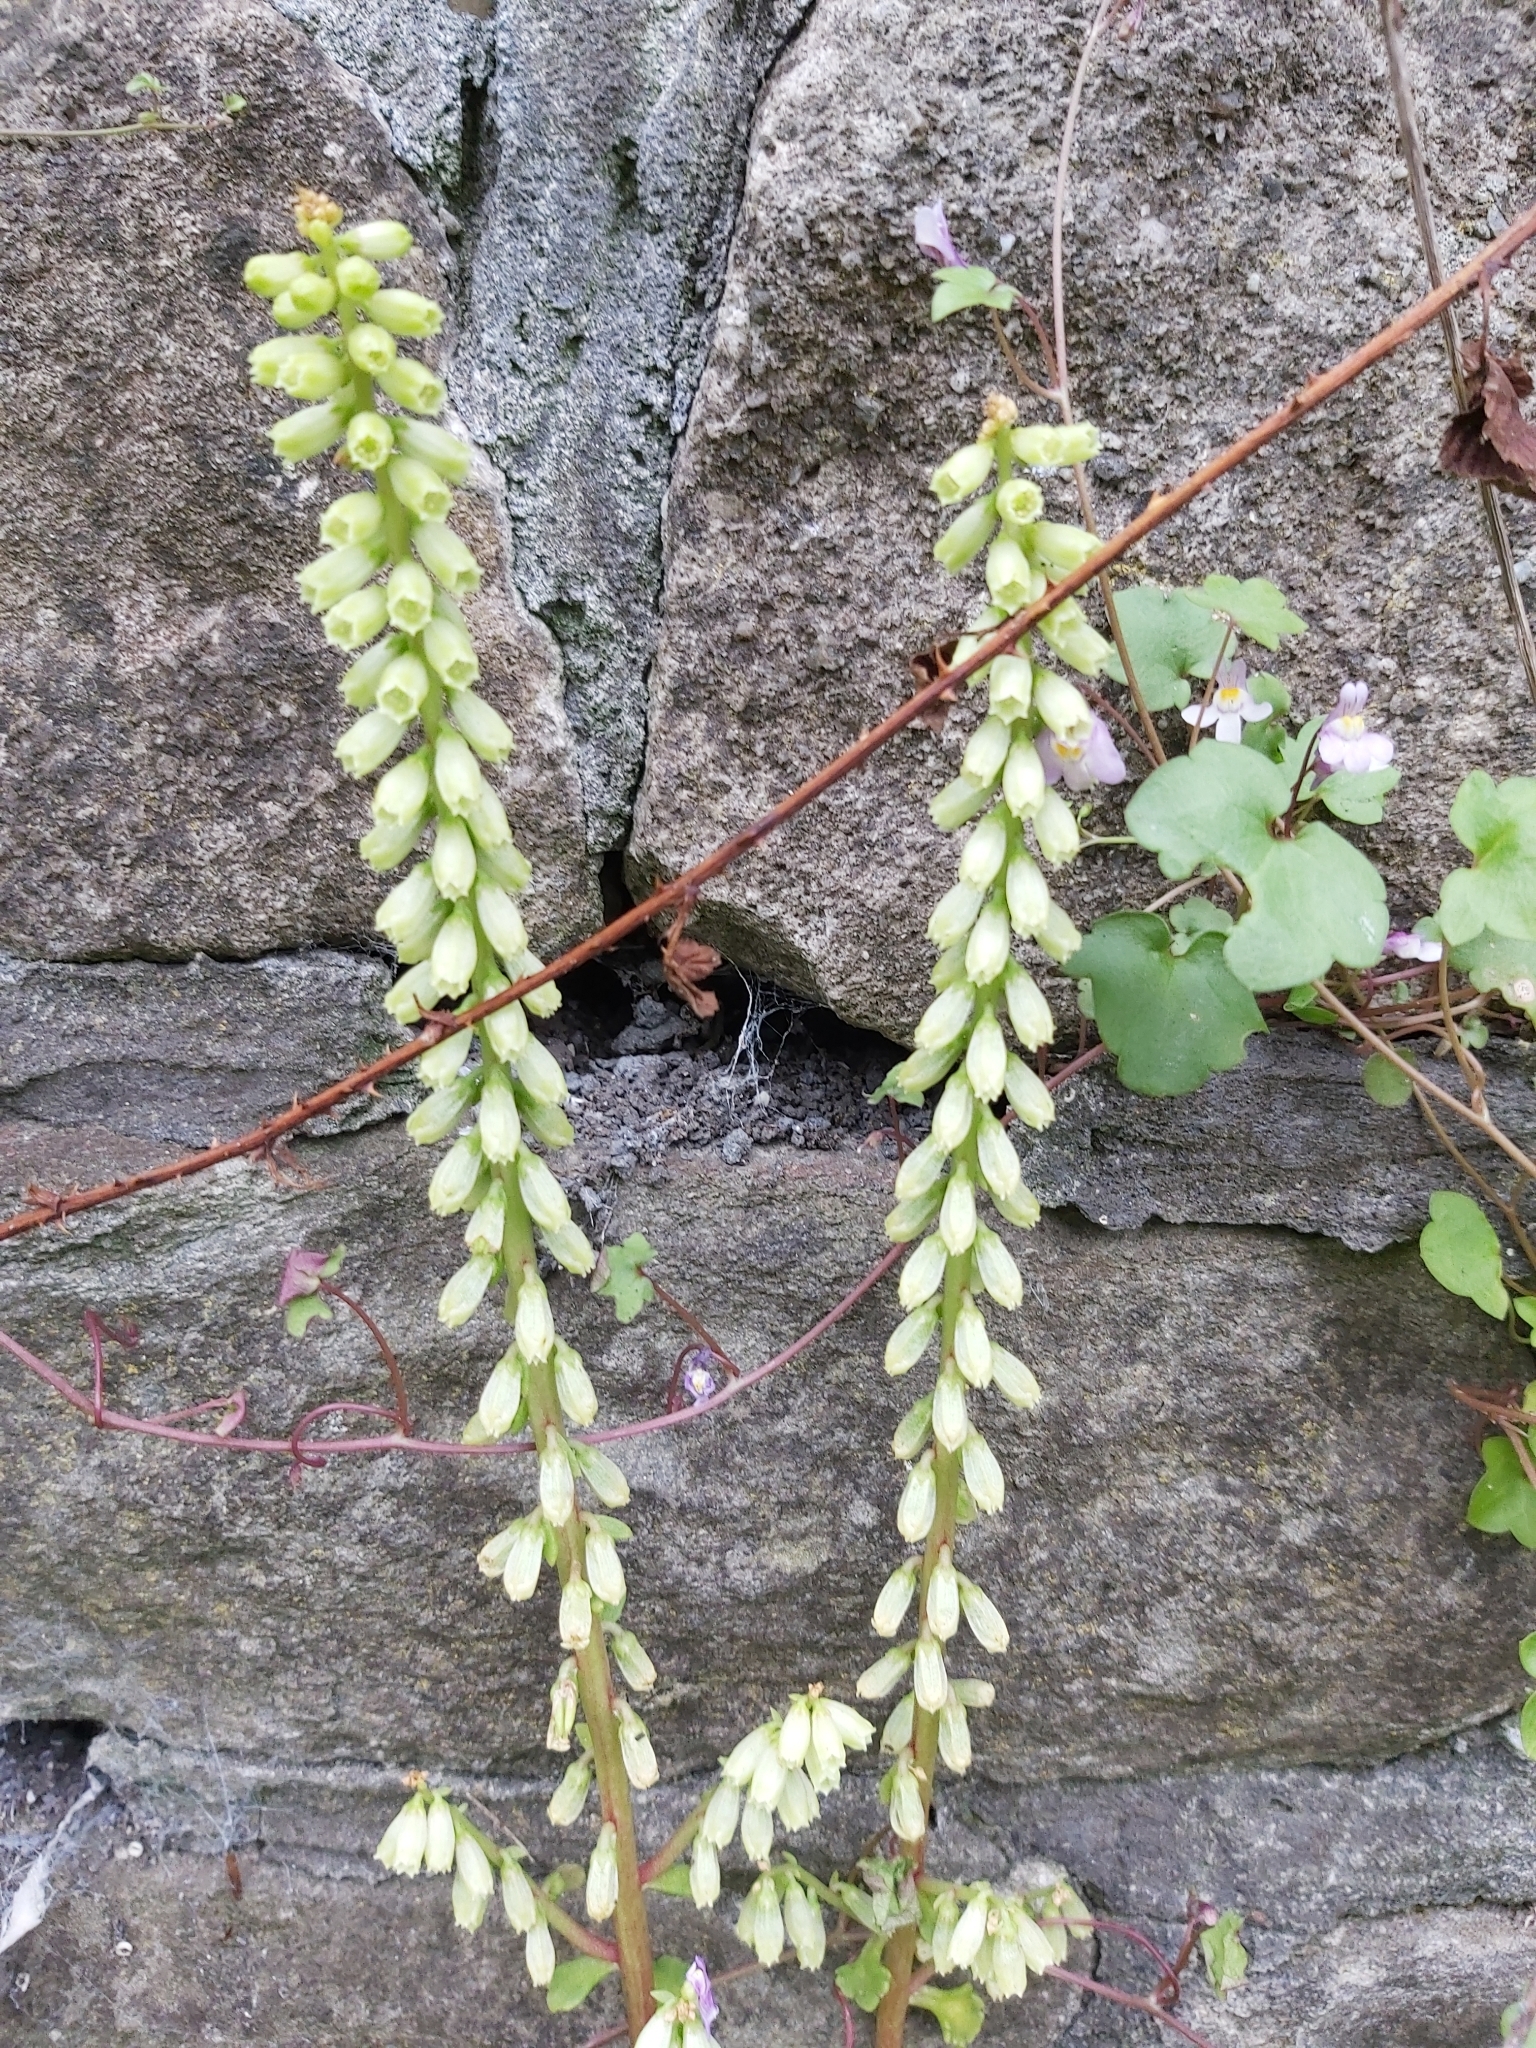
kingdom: Plantae
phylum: Tracheophyta
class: Magnoliopsida
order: Saxifragales
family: Crassulaceae
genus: Umbilicus
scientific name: Umbilicus rupestris
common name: Navelwort
